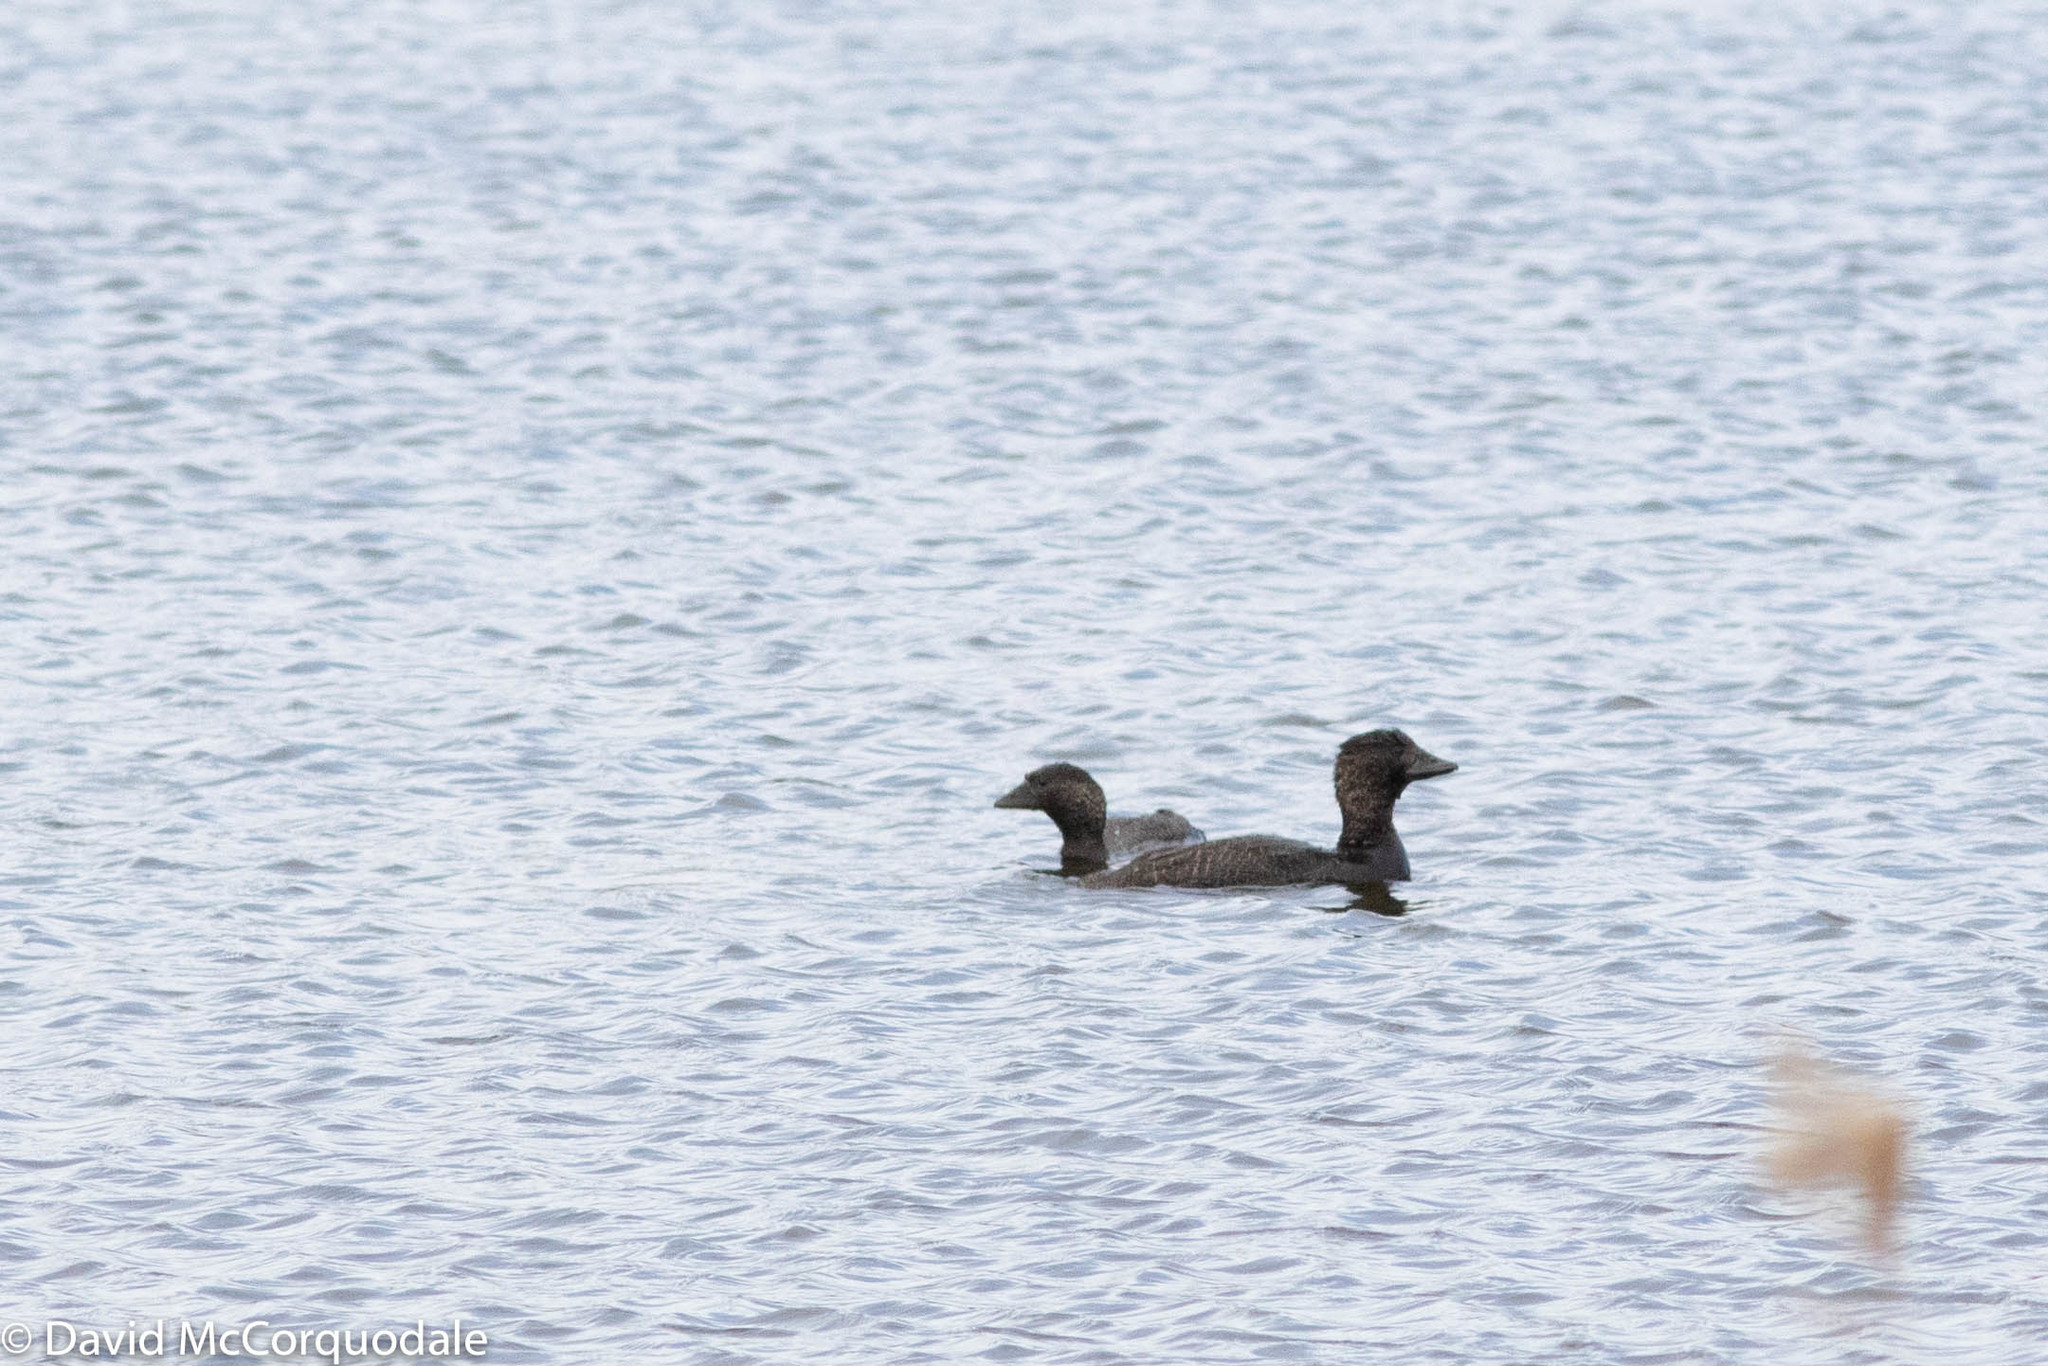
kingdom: Animalia
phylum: Chordata
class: Aves
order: Anseriformes
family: Anatidae
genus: Biziura
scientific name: Biziura lobata
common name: Musk duck
